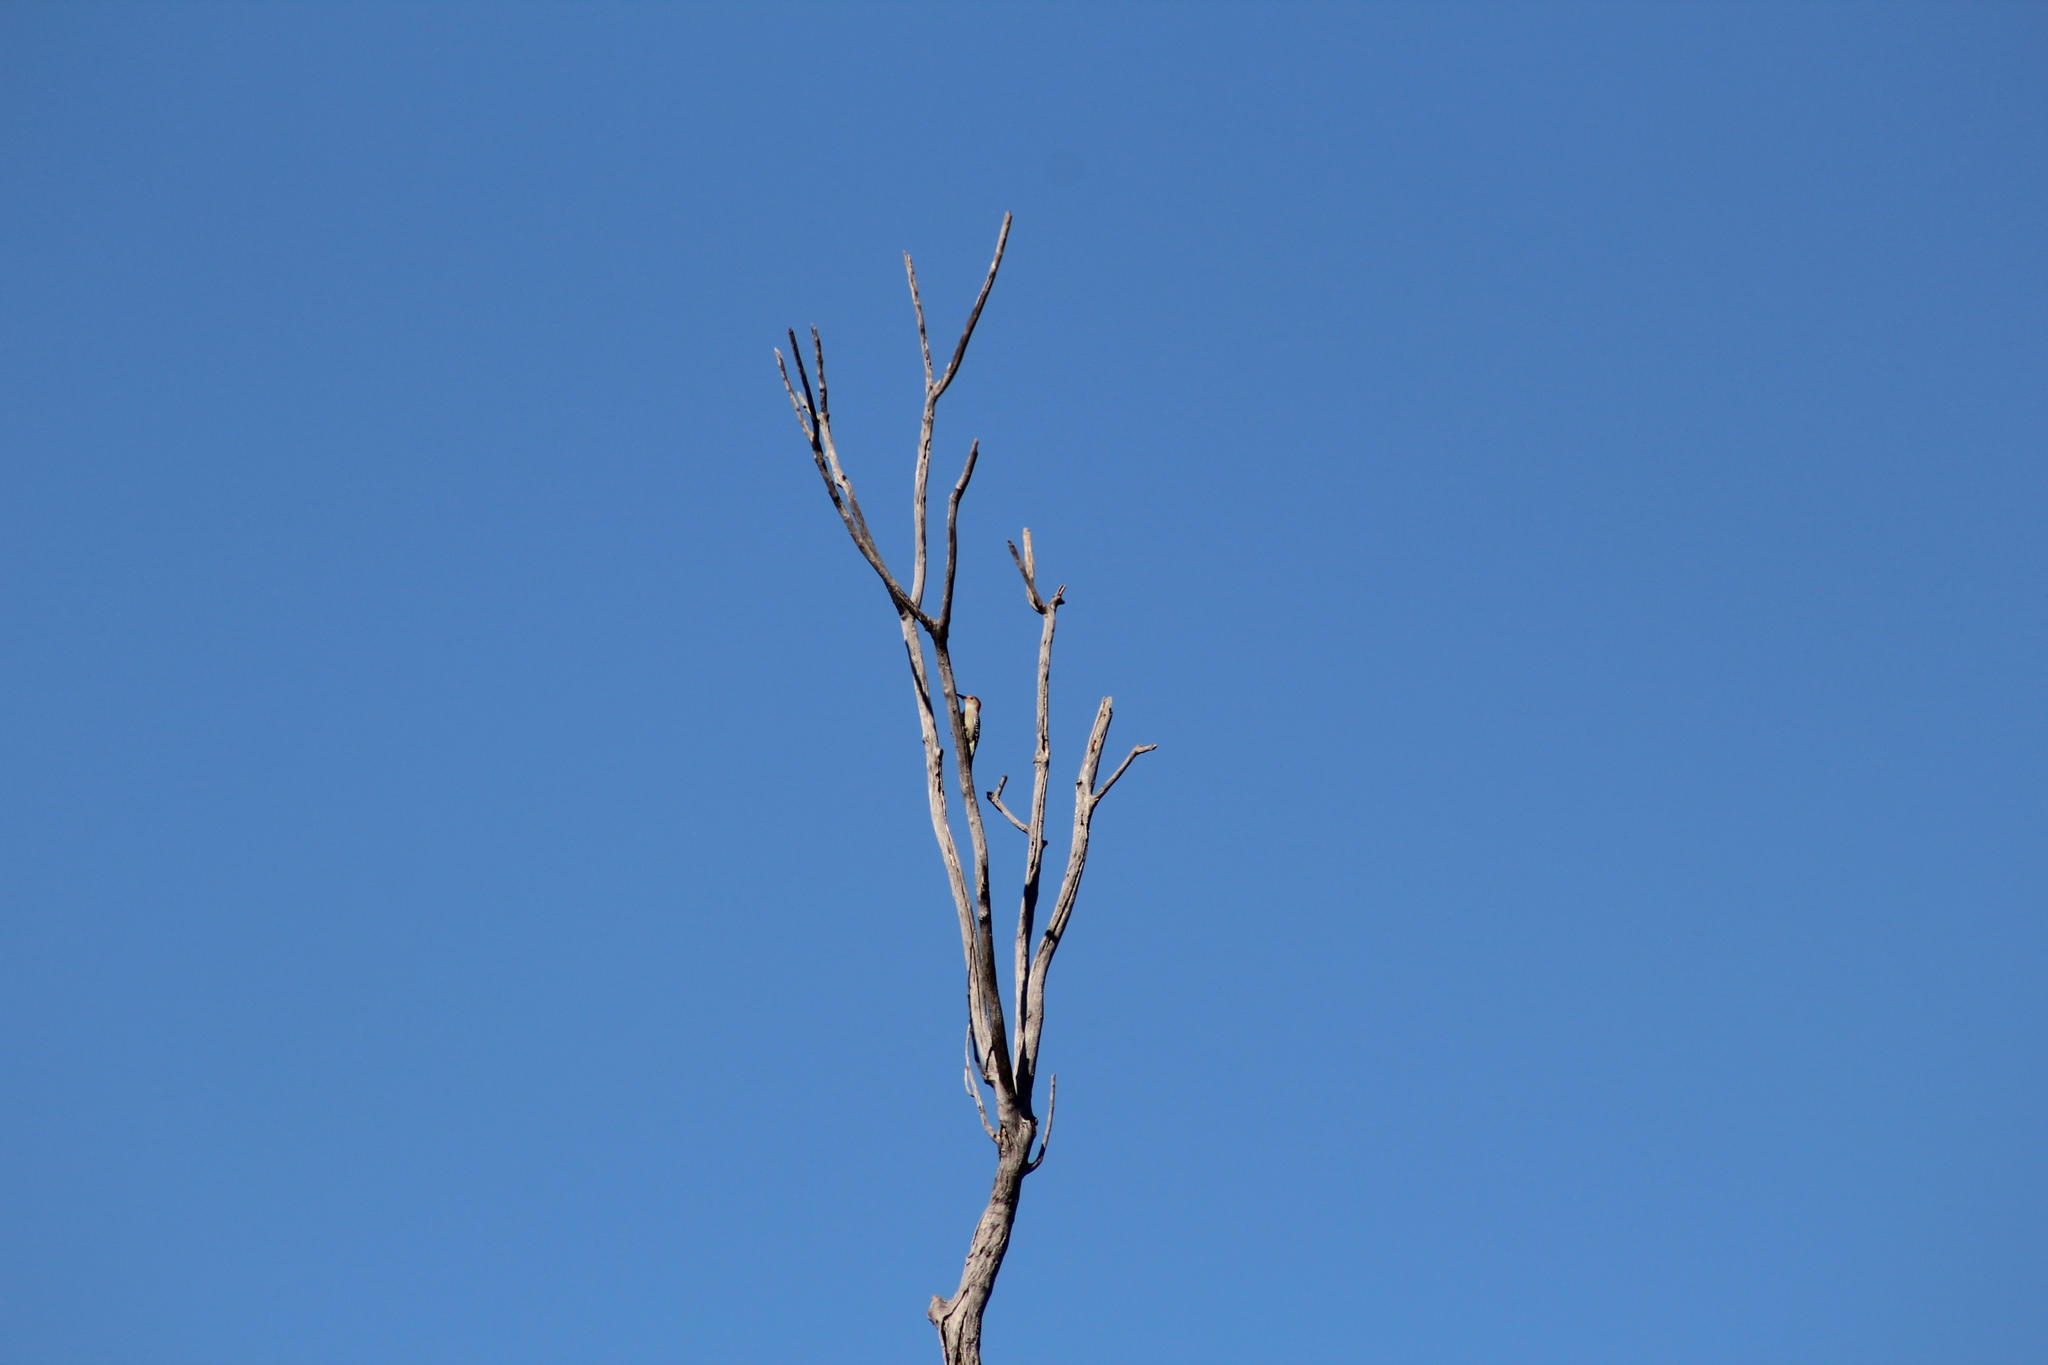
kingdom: Animalia
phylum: Chordata
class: Aves
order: Piciformes
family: Picidae
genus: Melanerpes
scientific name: Melanerpes carolinus
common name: Red-bellied woodpecker
